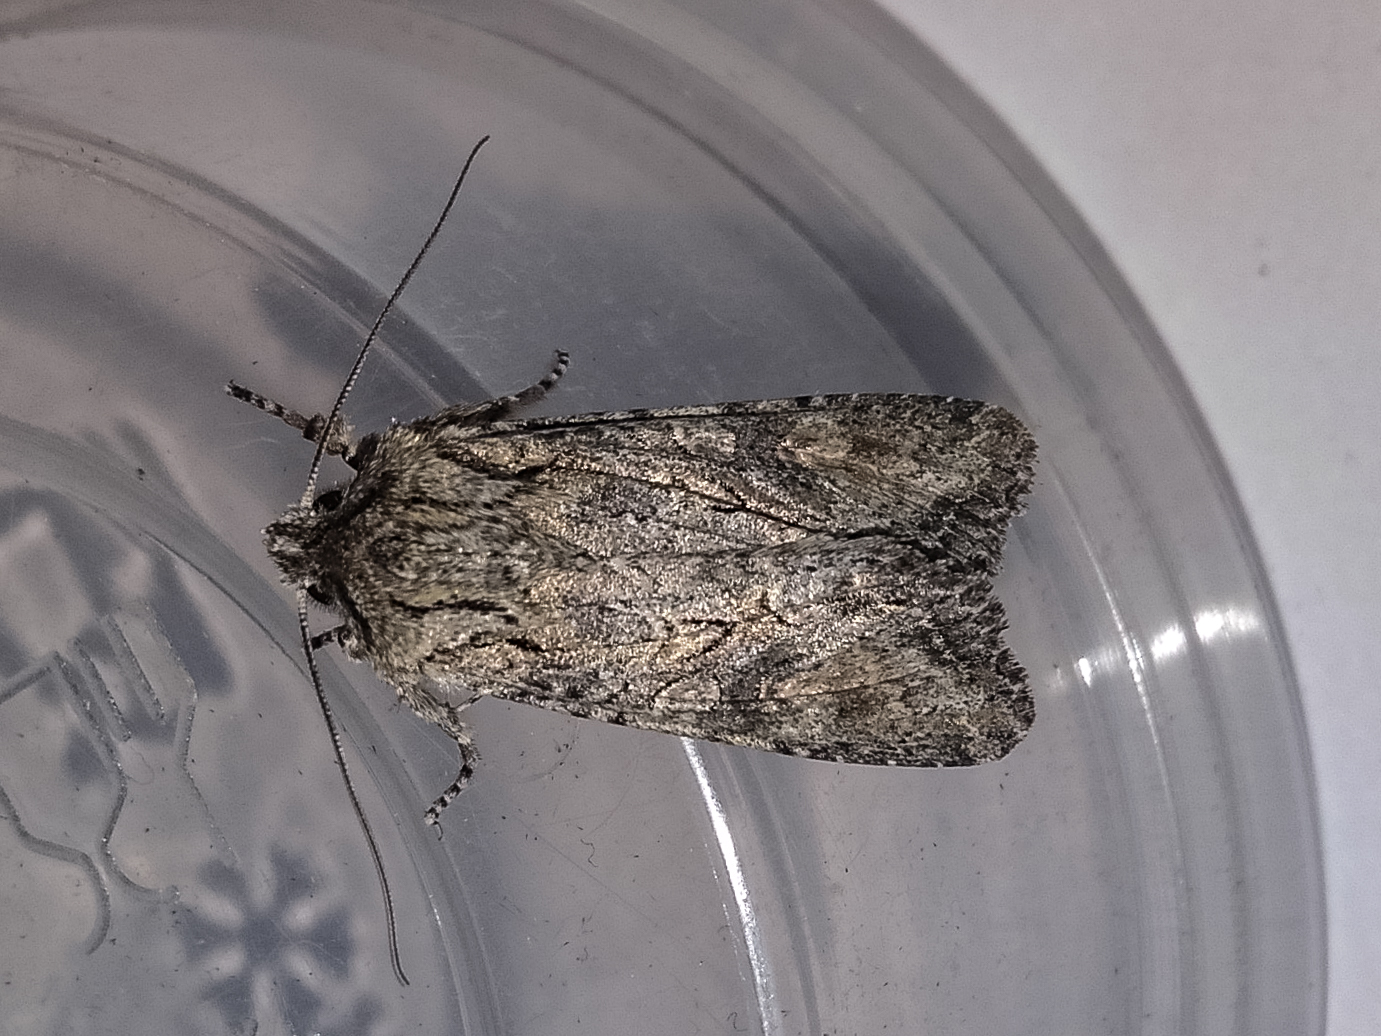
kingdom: Animalia
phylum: Arthropoda
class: Insecta
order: Lepidoptera
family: Noctuidae
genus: Ichneutica
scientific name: Ichneutica mutans
